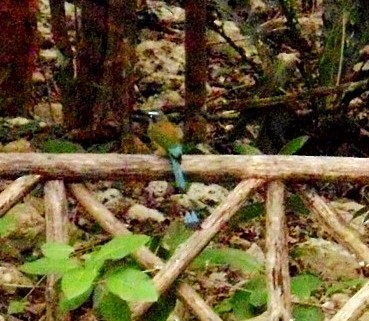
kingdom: Animalia
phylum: Chordata
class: Aves
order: Coraciiformes
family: Momotidae
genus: Eumomota
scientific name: Eumomota superciliosa
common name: Turquoise-browed motmot
